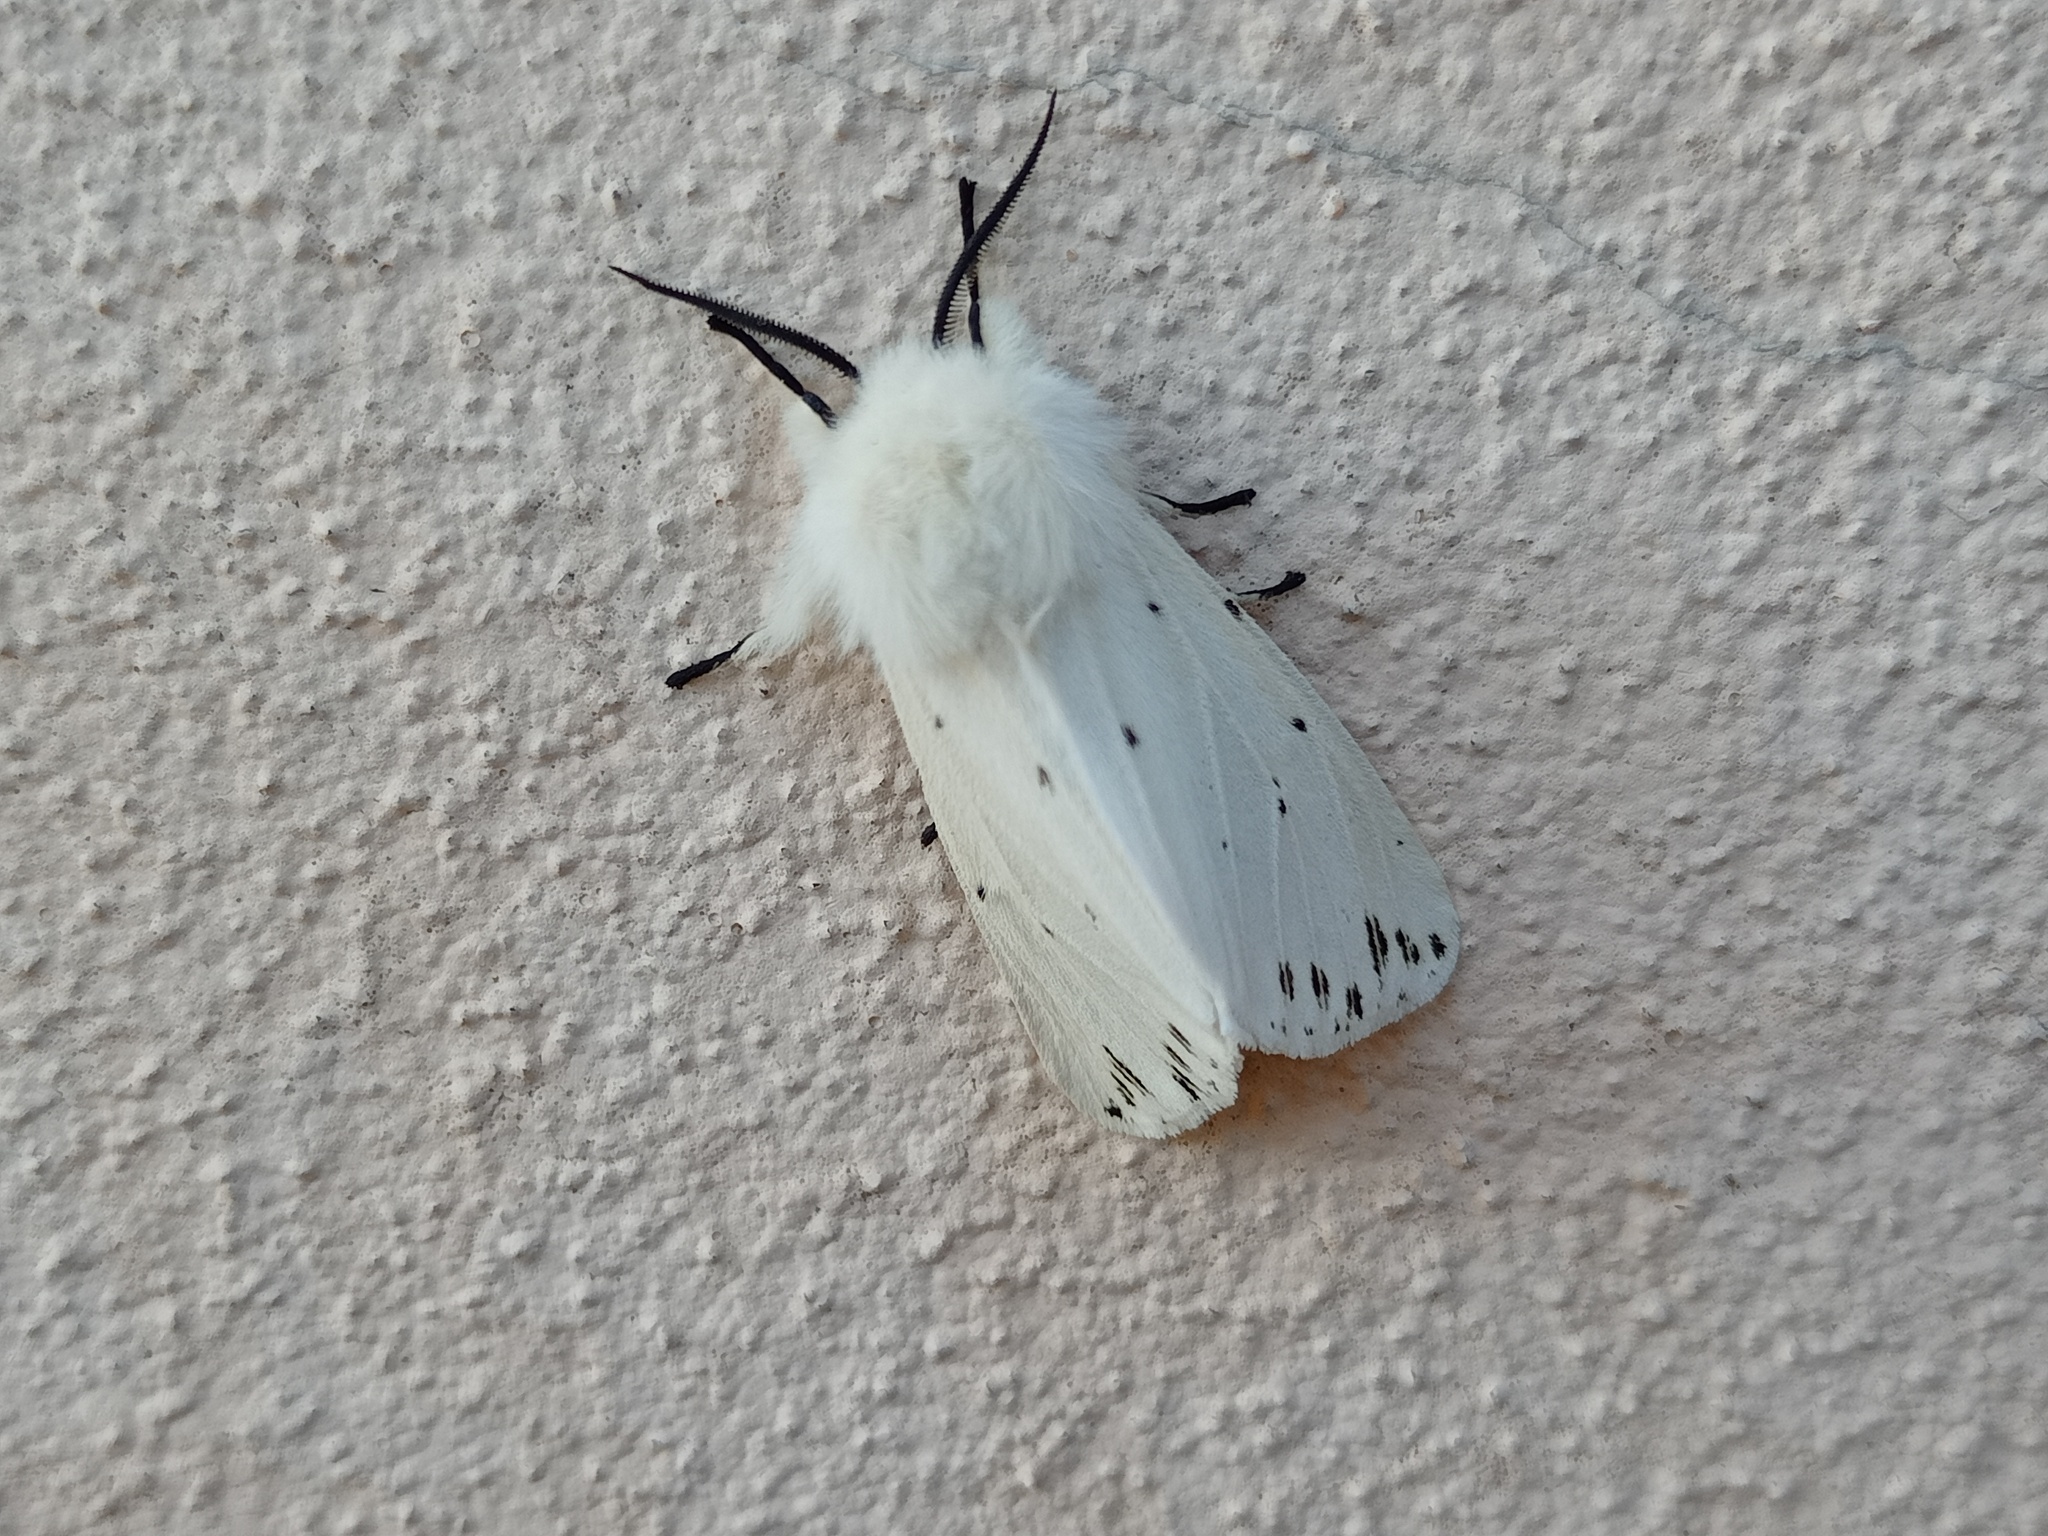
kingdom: Animalia
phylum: Arthropoda
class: Insecta
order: Lepidoptera
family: Erebidae
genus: Spilosoma
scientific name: Spilosoma lubricipeda
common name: White ermine
